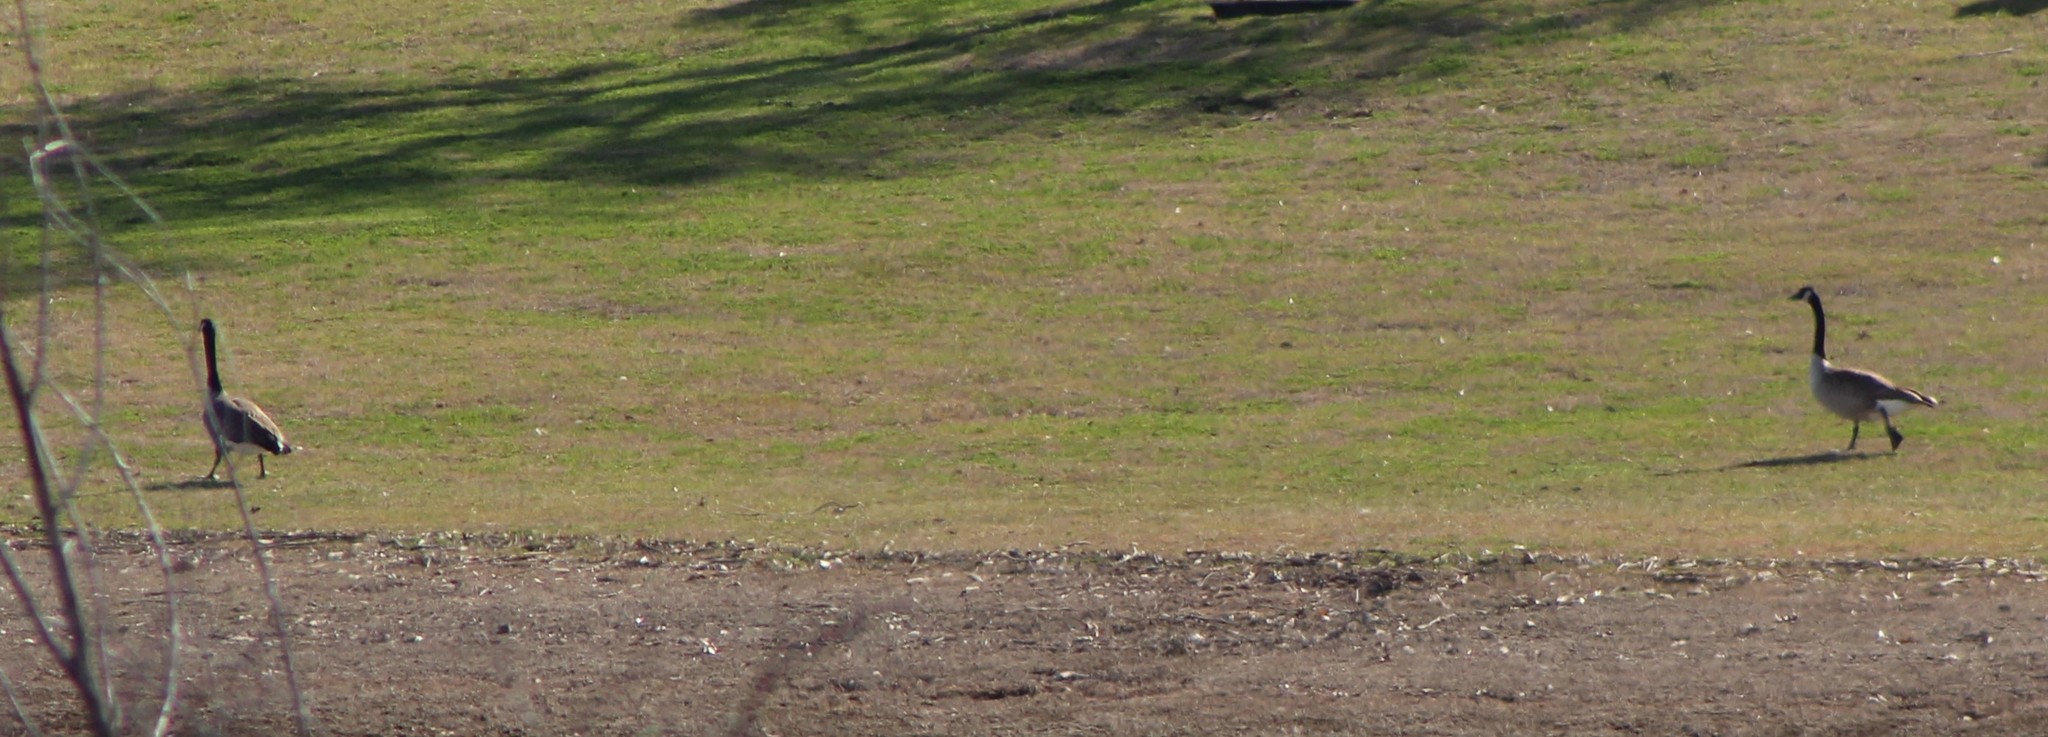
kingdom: Animalia
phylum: Chordata
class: Aves
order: Anseriformes
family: Anatidae
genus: Branta
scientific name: Branta canadensis
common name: Canada goose
